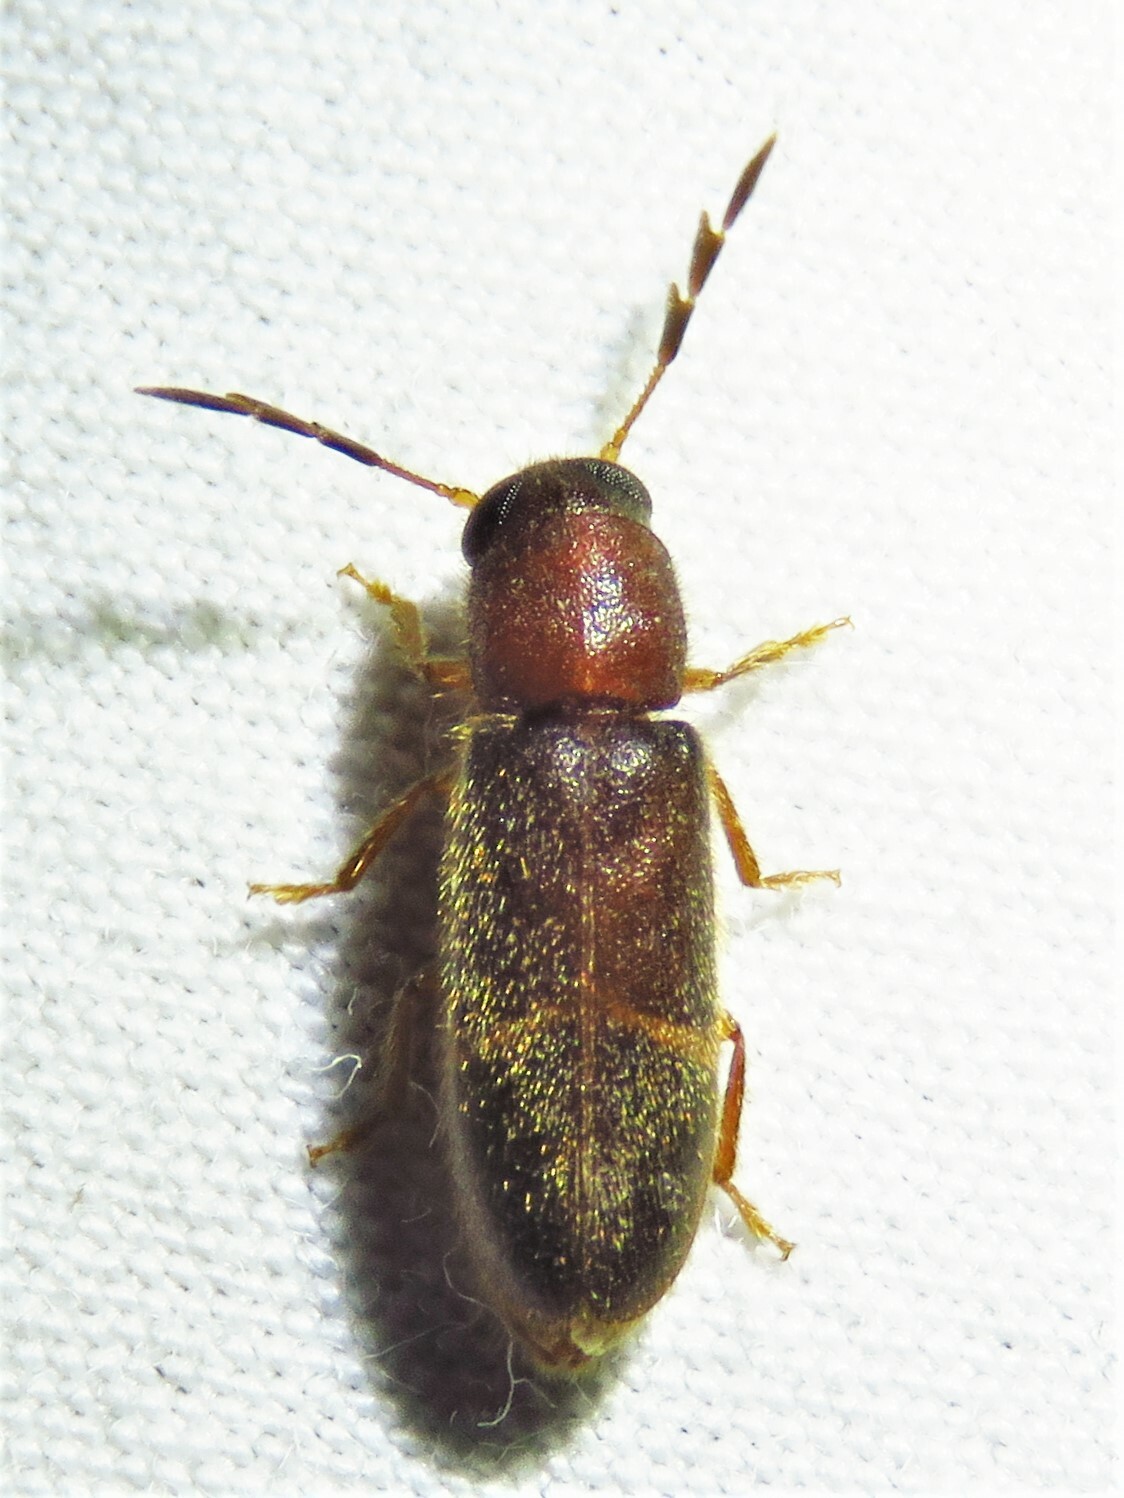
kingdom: Animalia
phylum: Arthropoda
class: Insecta
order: Coleoptera
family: Cleridae
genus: Neorthopleura
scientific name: Neorthopleura texana
